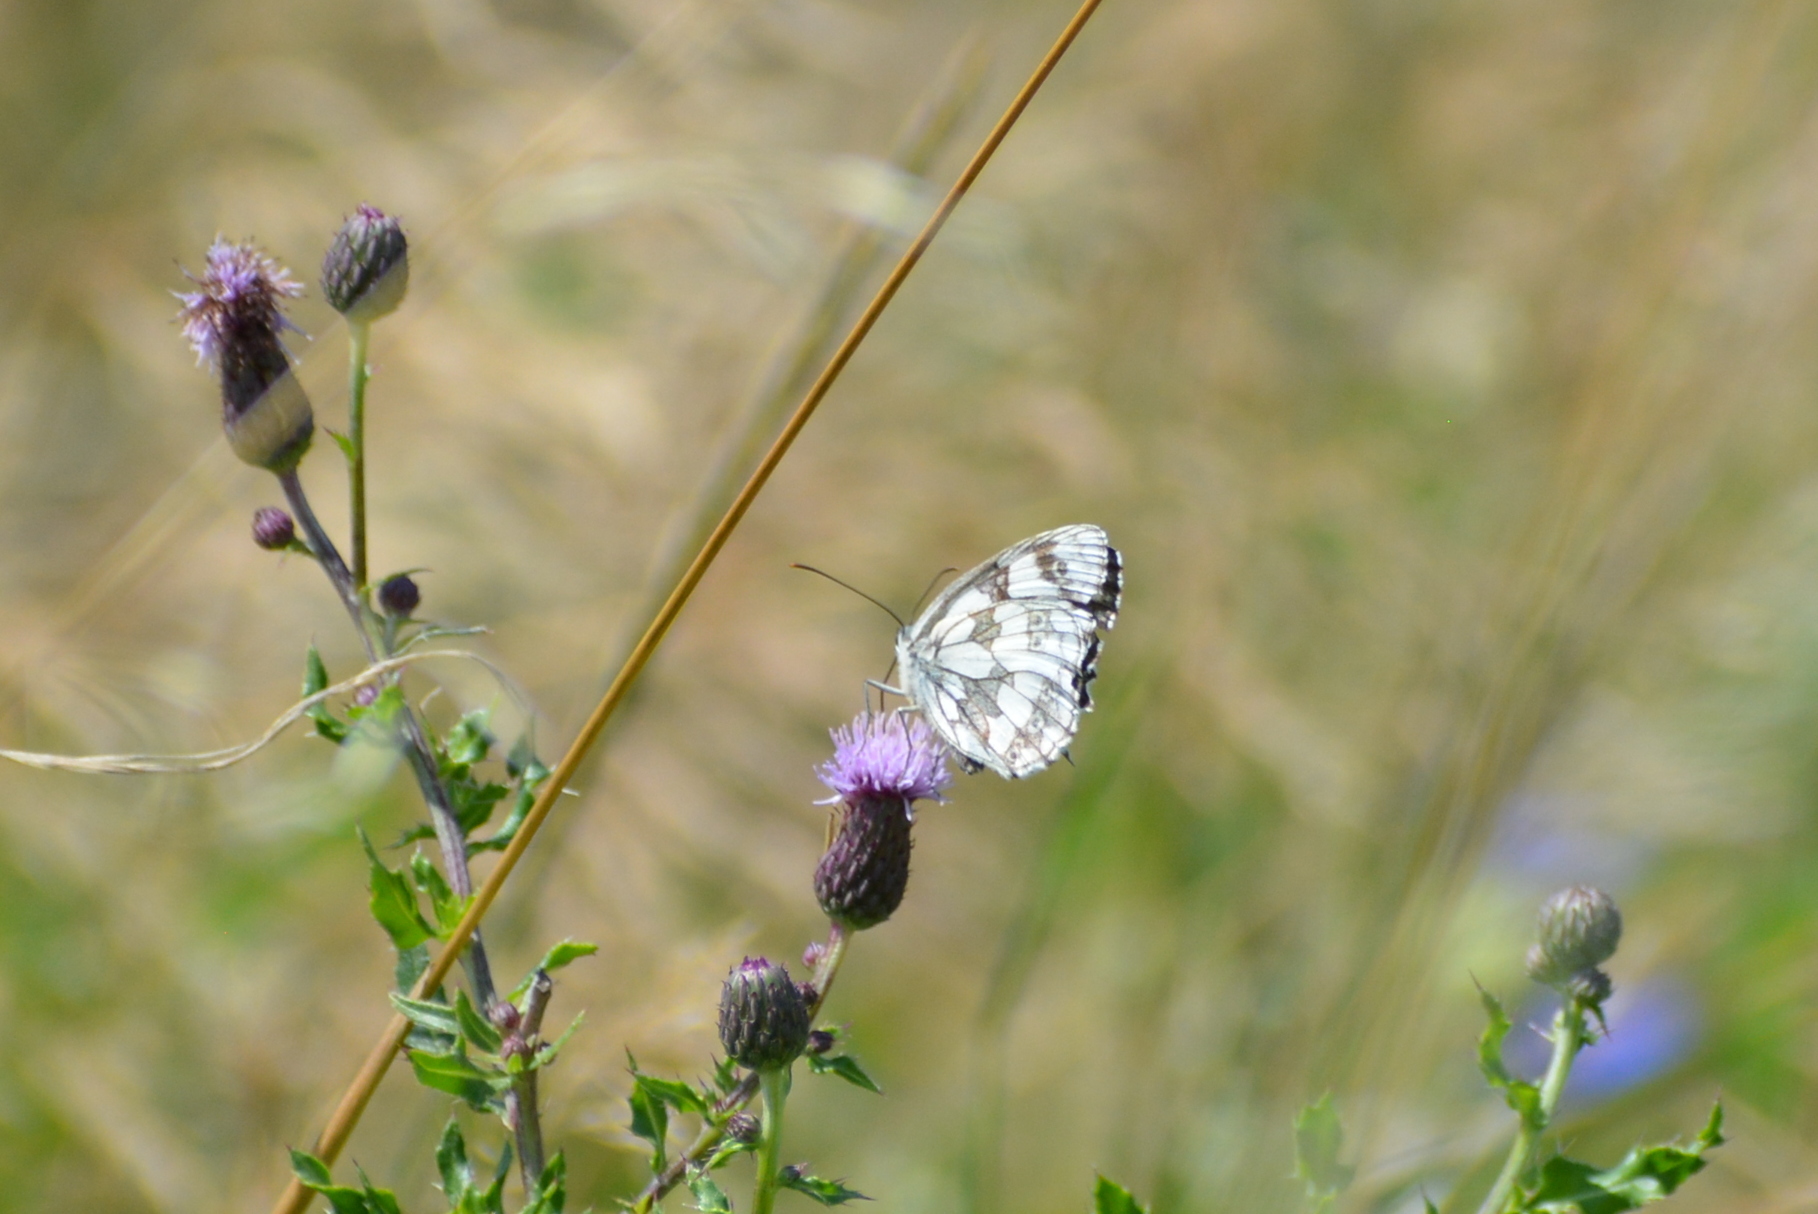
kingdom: Animalia
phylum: Arthropoda
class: Insecta
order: Lepidoptera
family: Nymphalidae
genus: Melanargia
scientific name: Melanargia galathea
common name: Marbled white
